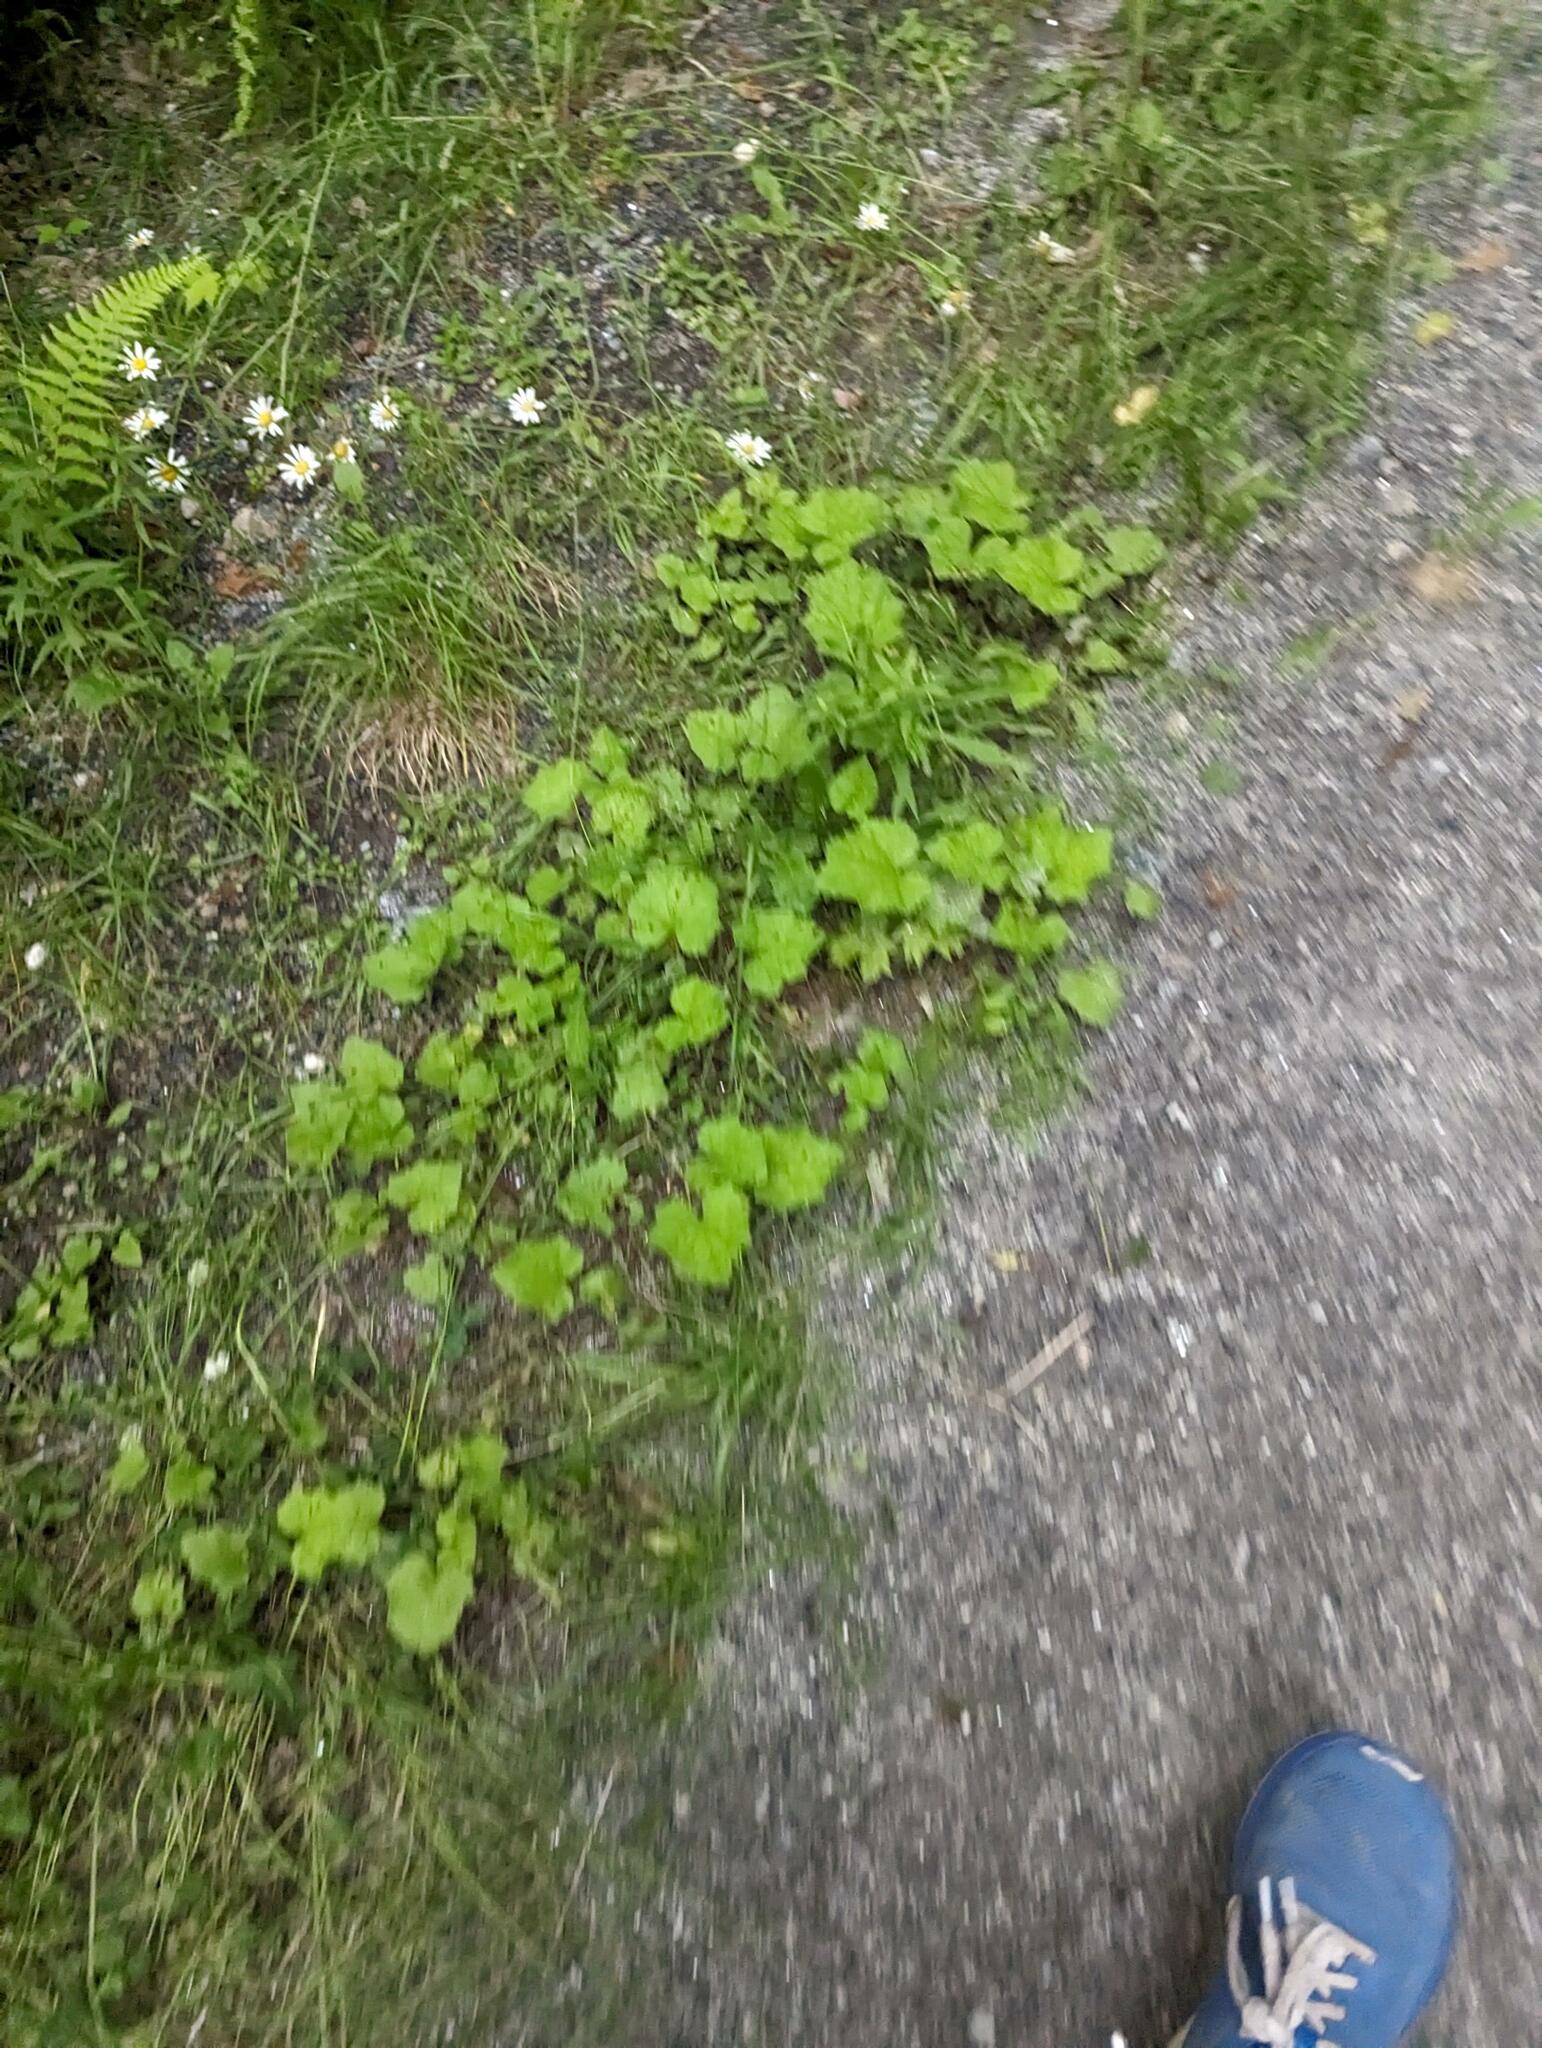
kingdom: Plantae
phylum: Tracheophyta
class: Magnoliopsida
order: Asterales
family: Asteraceae
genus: Tussilago
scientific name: Tussilago farfara
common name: Coltsfoot
